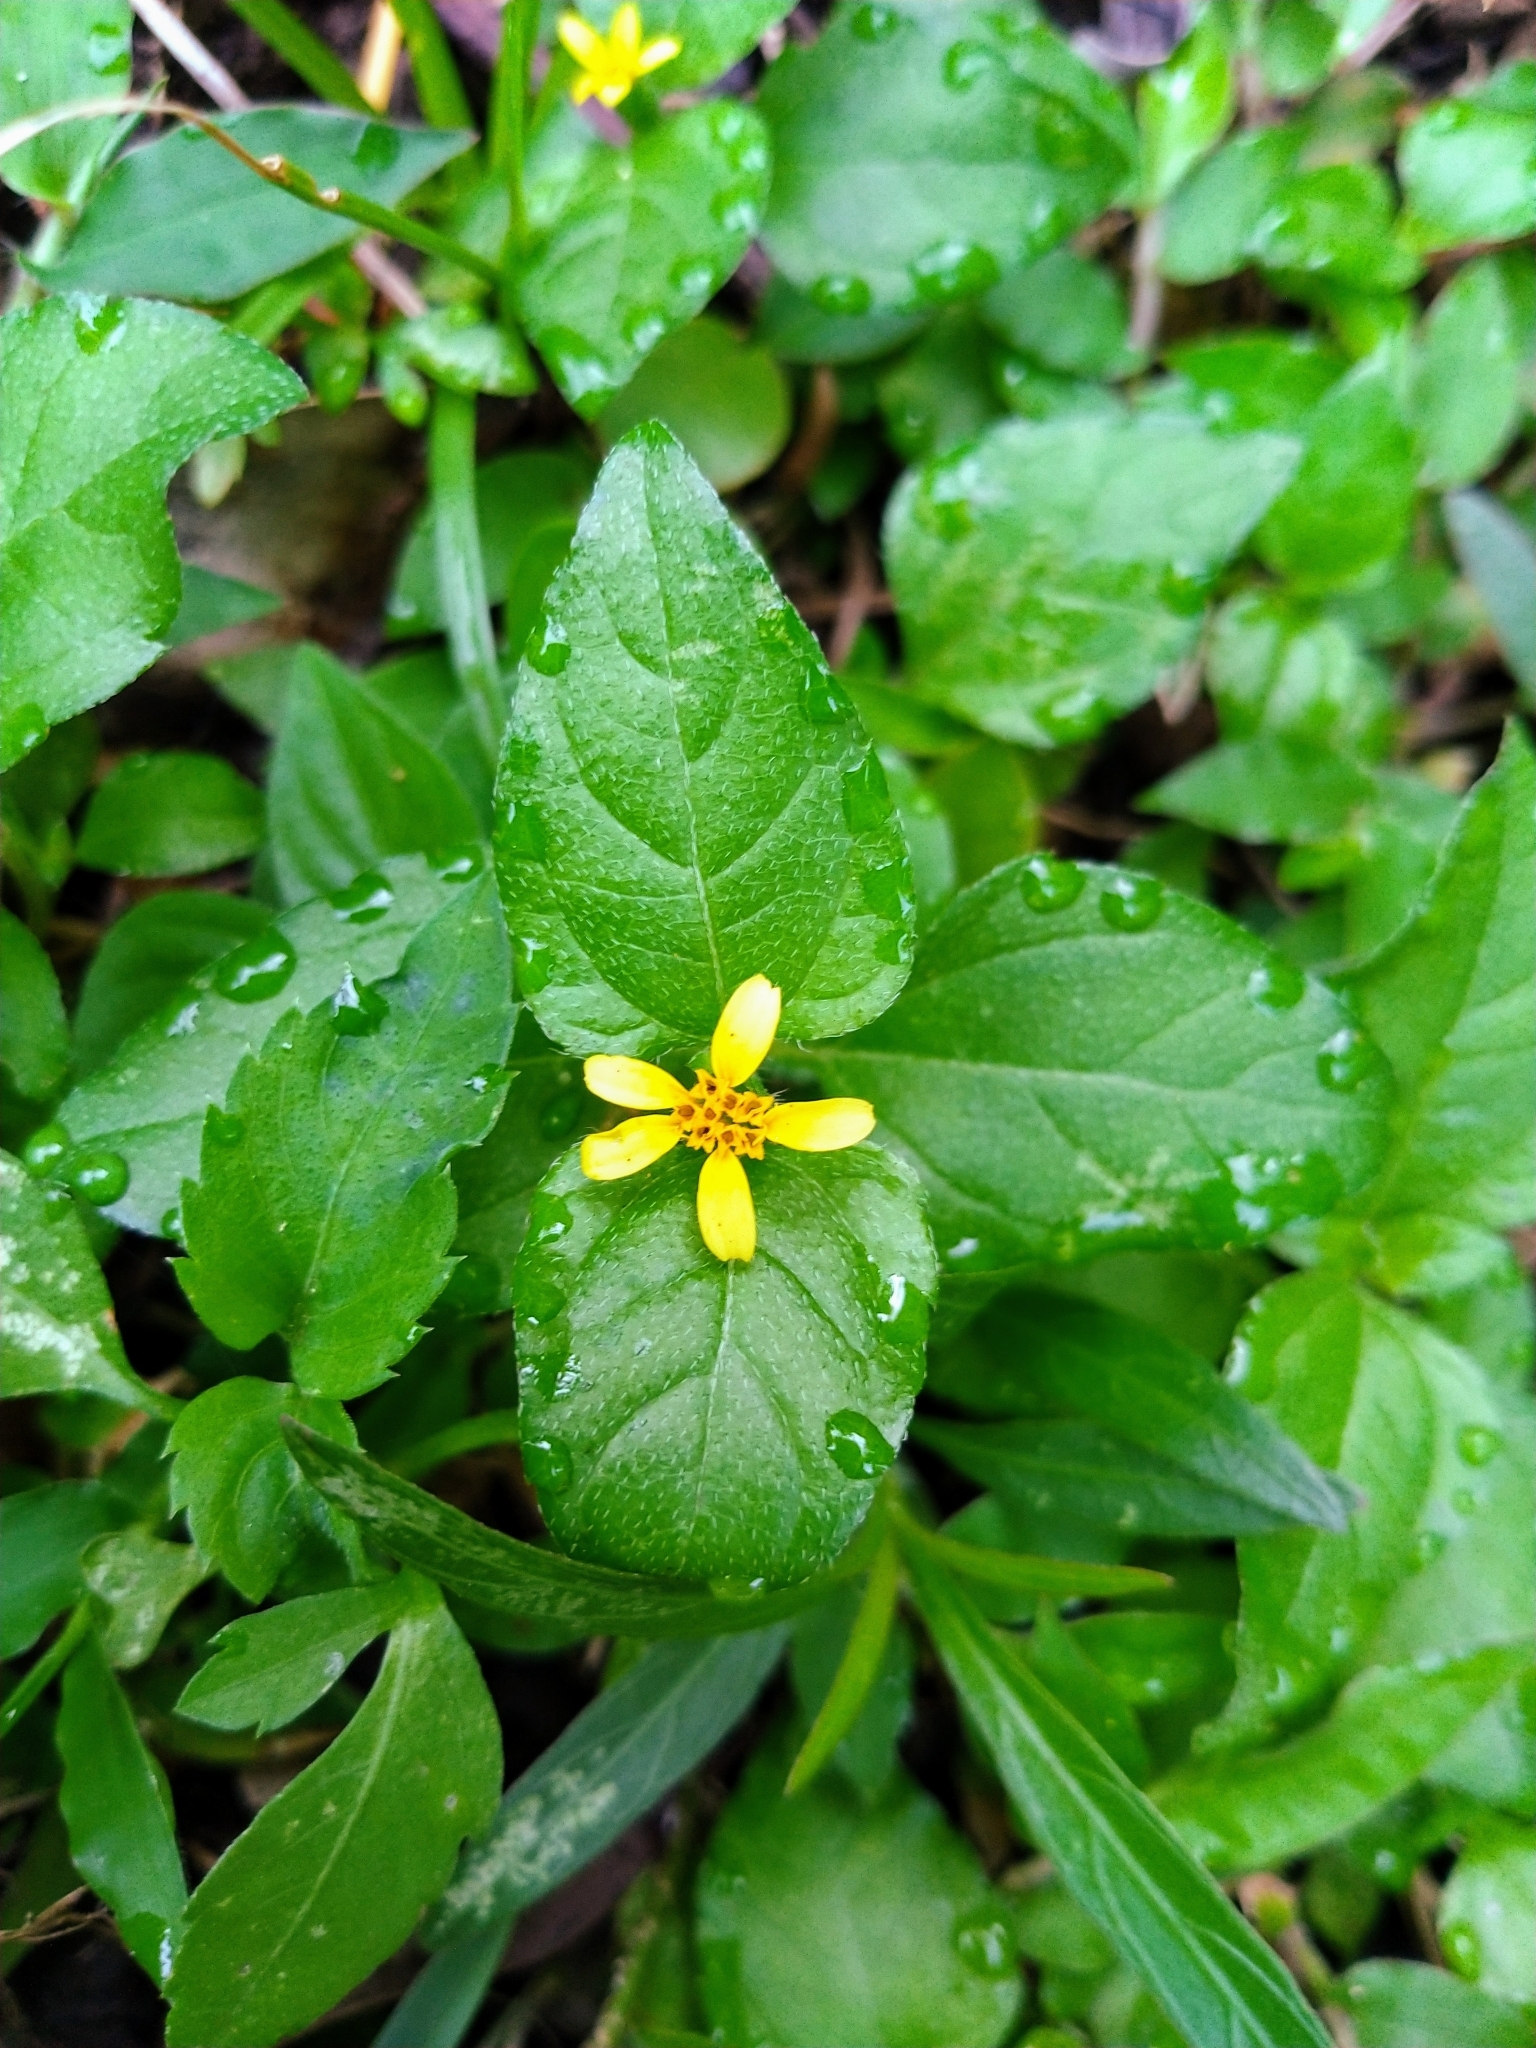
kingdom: Plantae
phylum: Tracheophyta
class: Magnoliopsida
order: Asterales
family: Asteraceae
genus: Calyptocarpus
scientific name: Calyptocarpus vialis
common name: Straggler daisy
